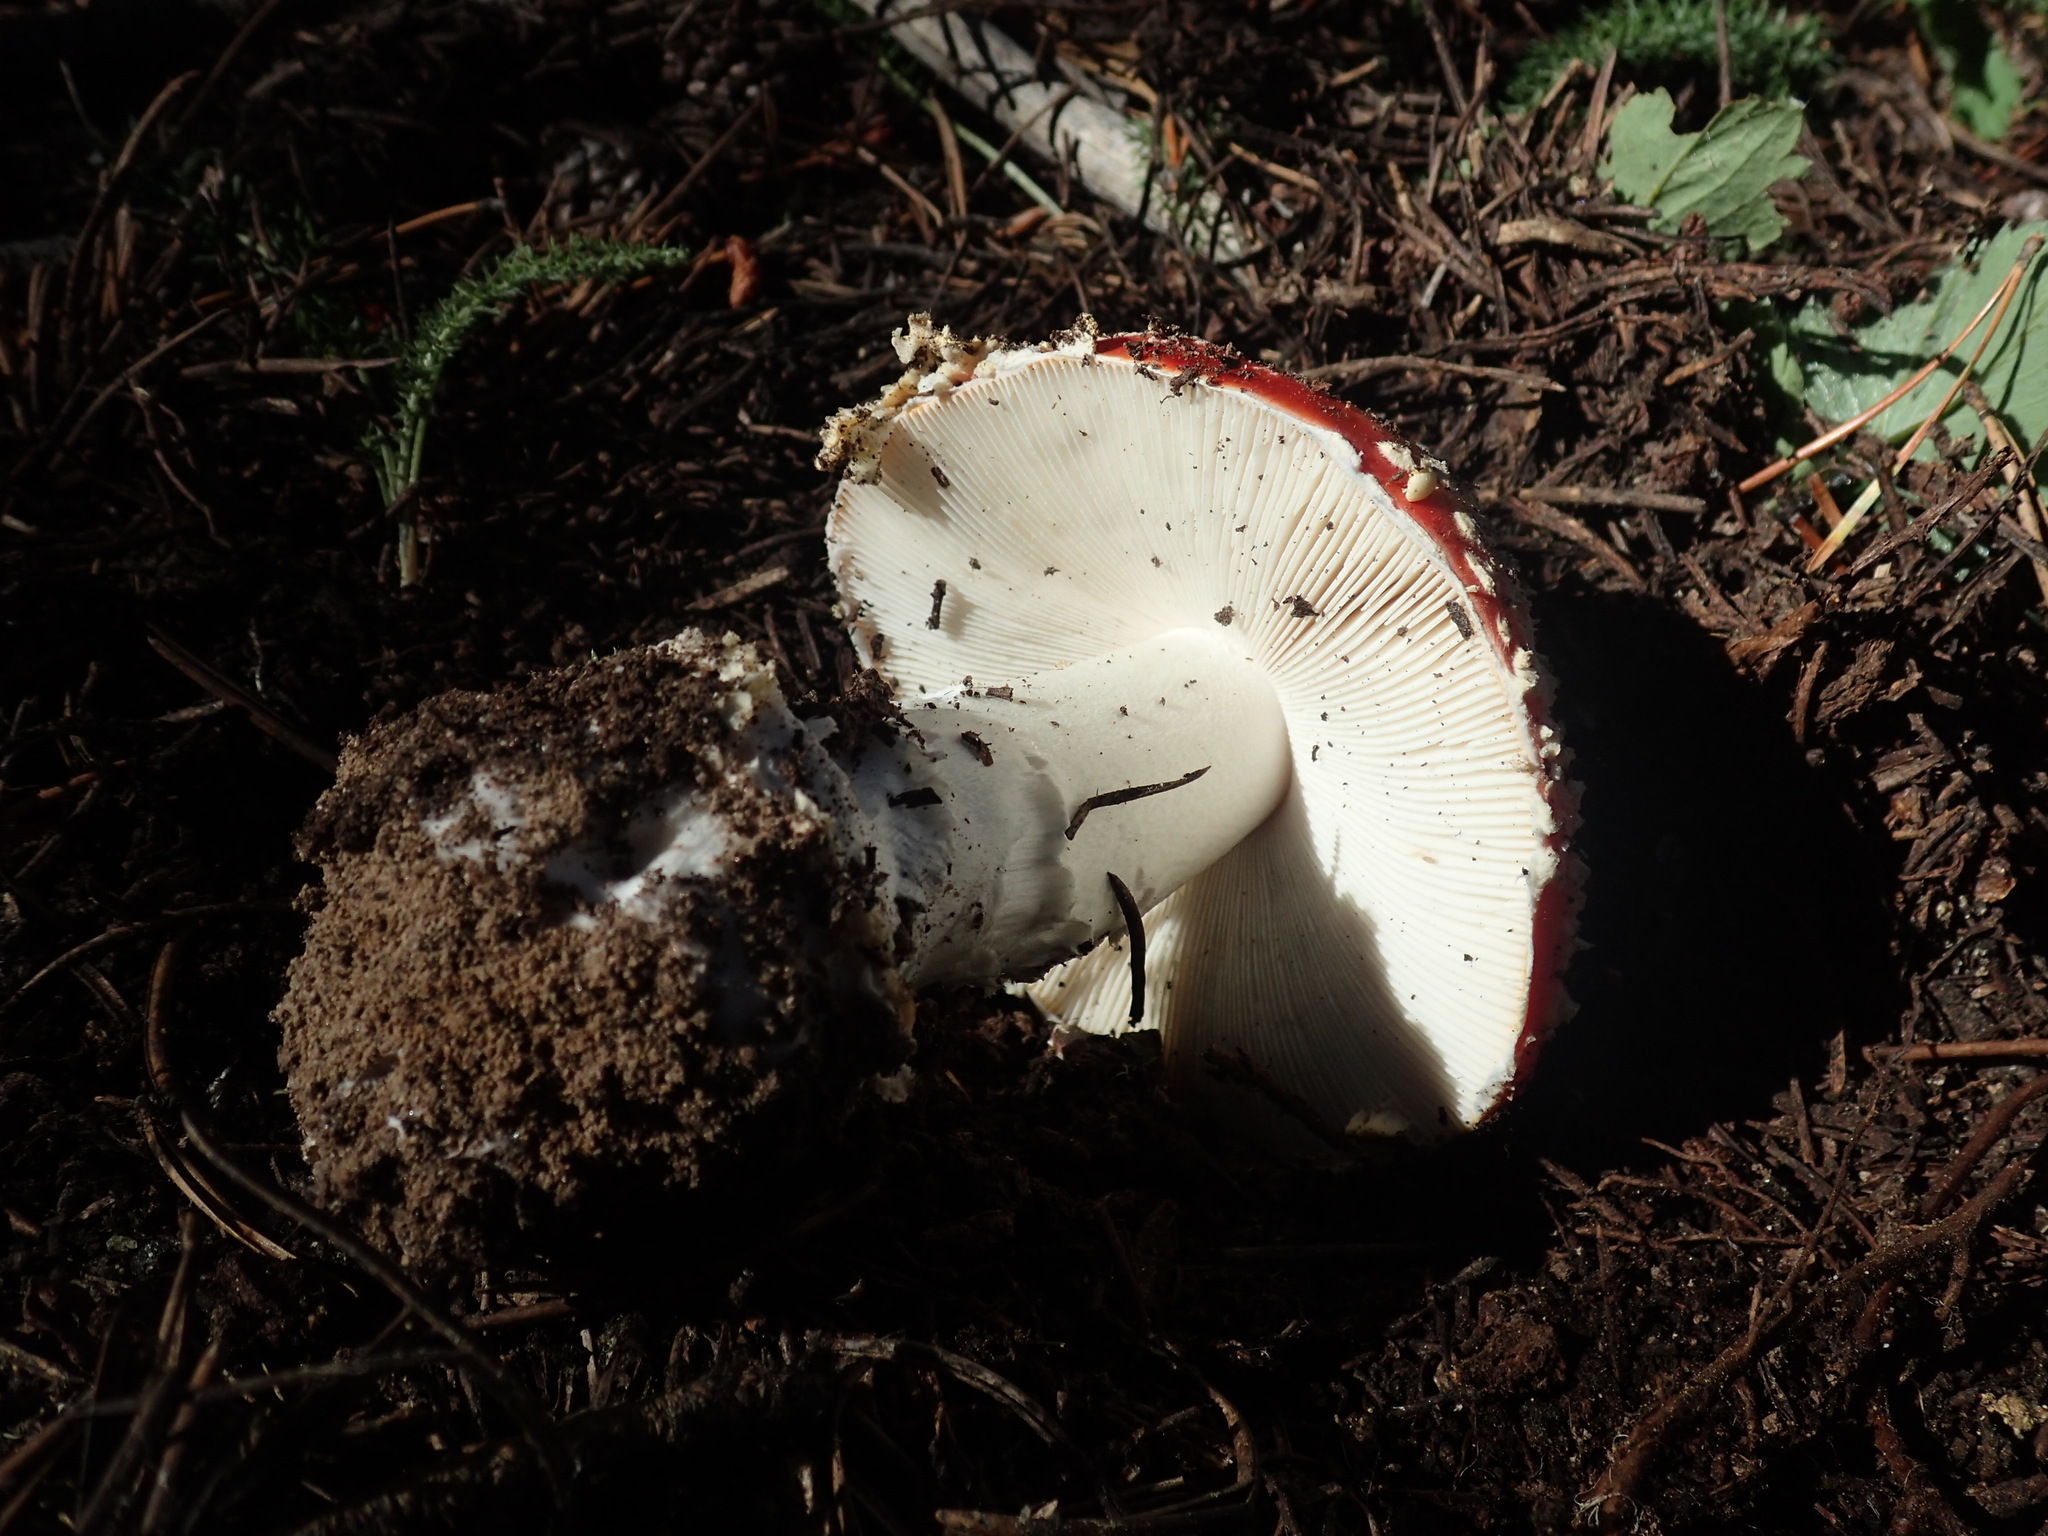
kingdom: Fungi
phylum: Basidiomycota
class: Agaricomycetes
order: Agaricales
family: Amanitaceae
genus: Amanita
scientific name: Amanita muscaria
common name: Fly agaric
